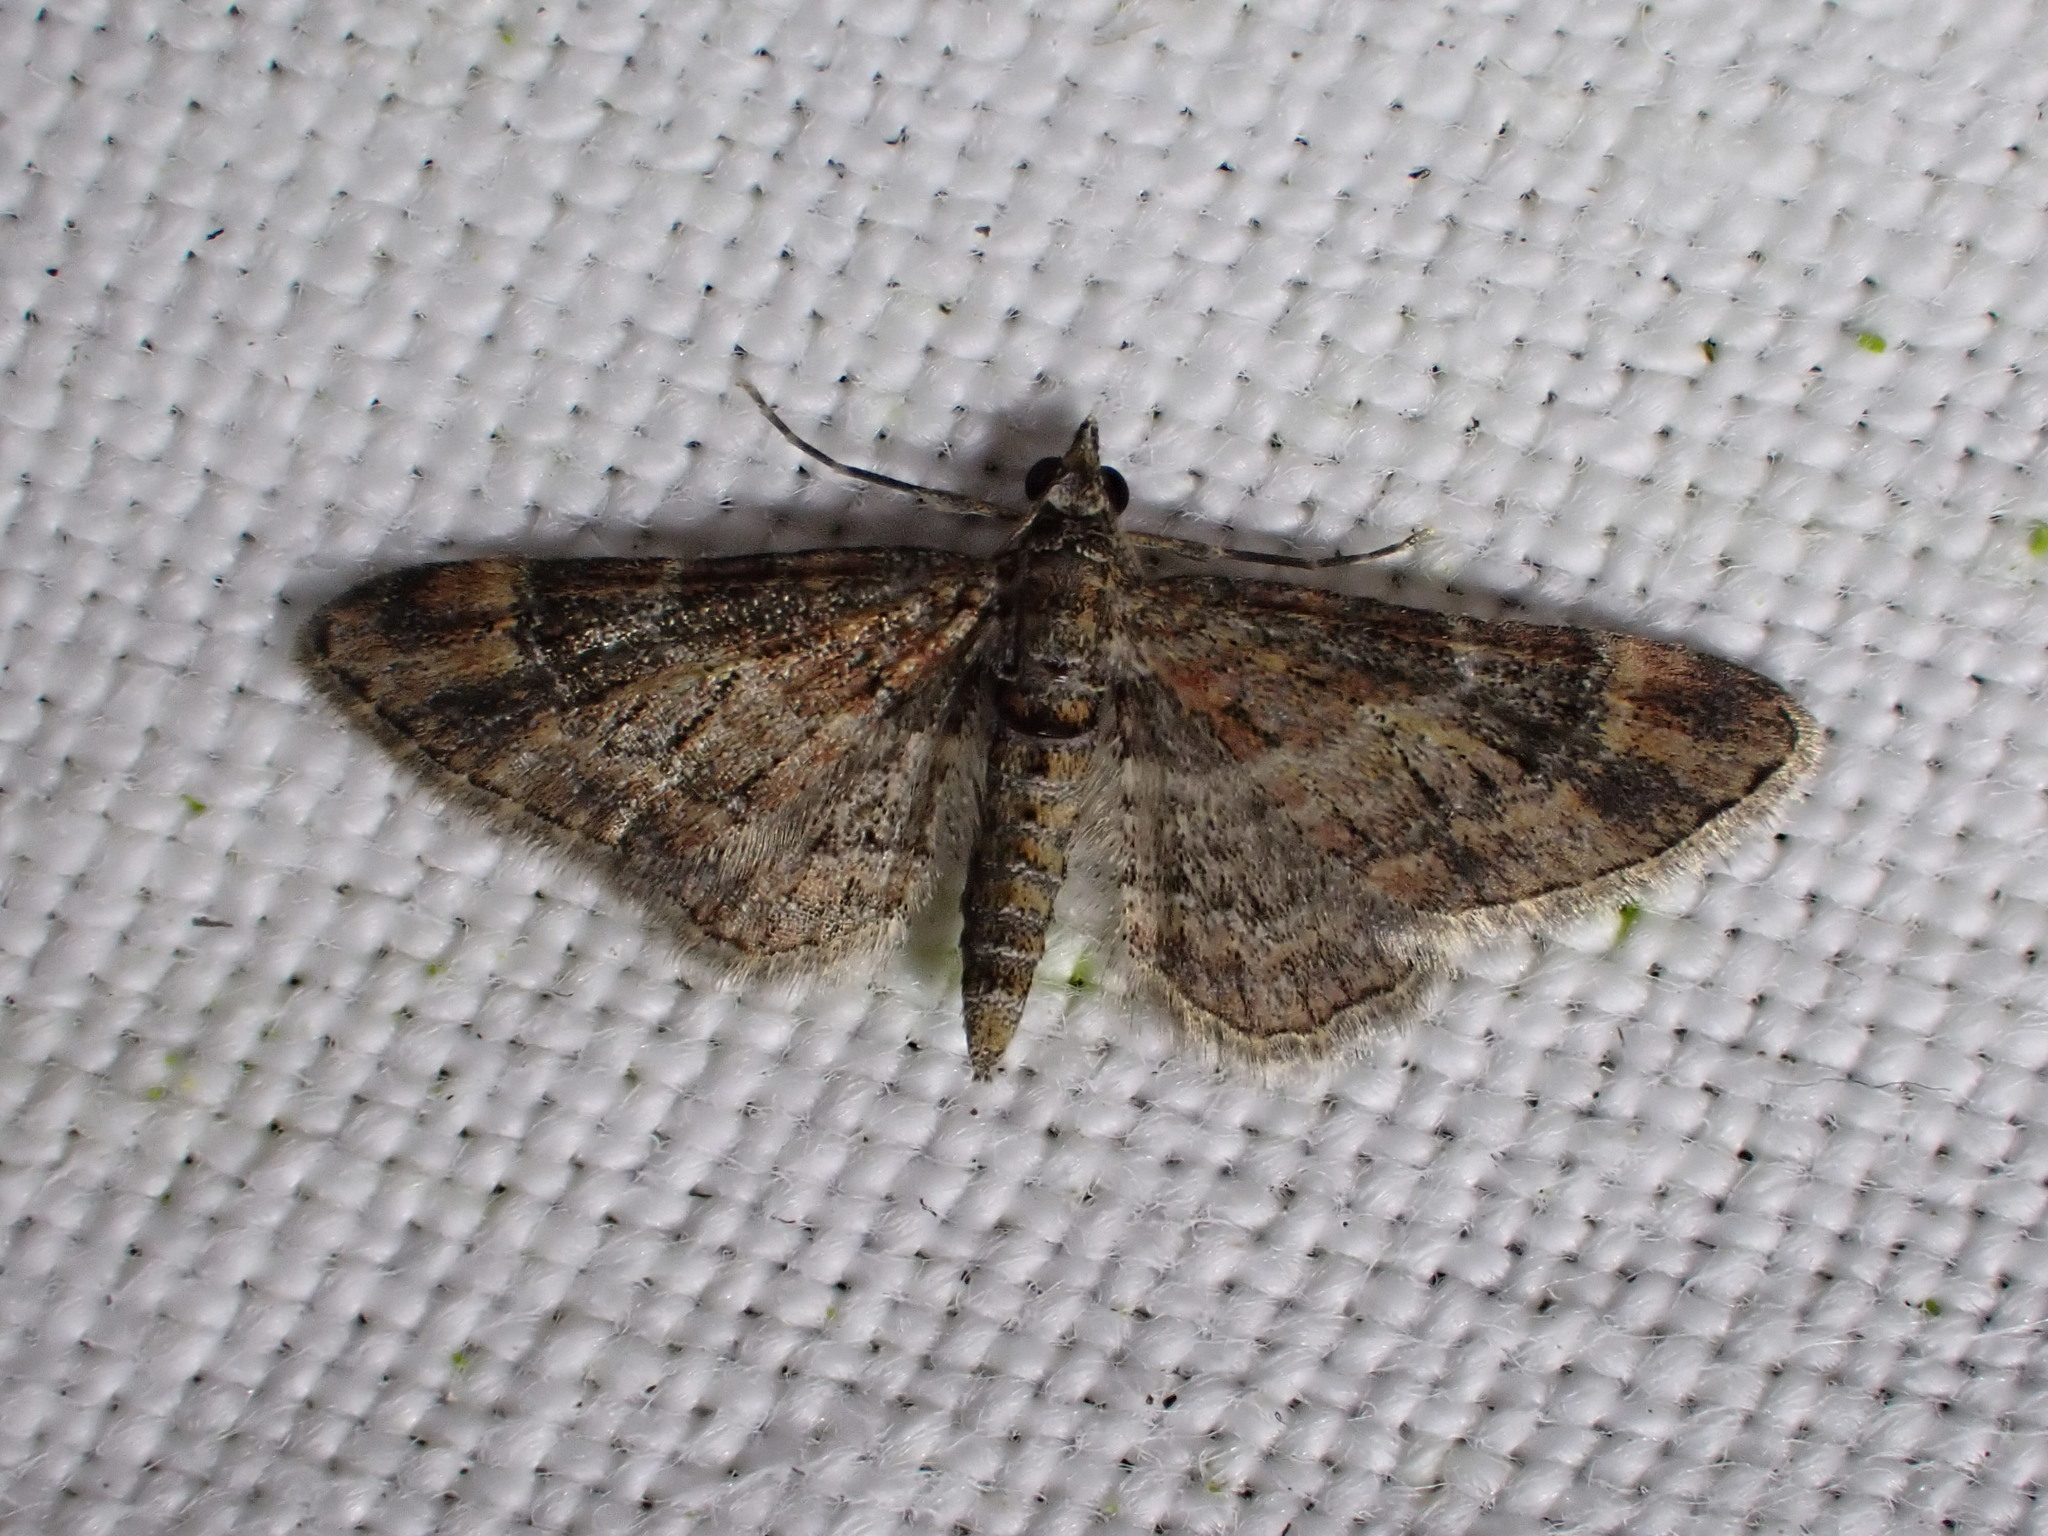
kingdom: Animalia
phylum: Arthropoda
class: Insecta
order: Lepidoptera
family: Geometridae
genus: Gymnoscelis
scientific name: Gymnoscelis rufifasciata
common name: Double-striped pug
